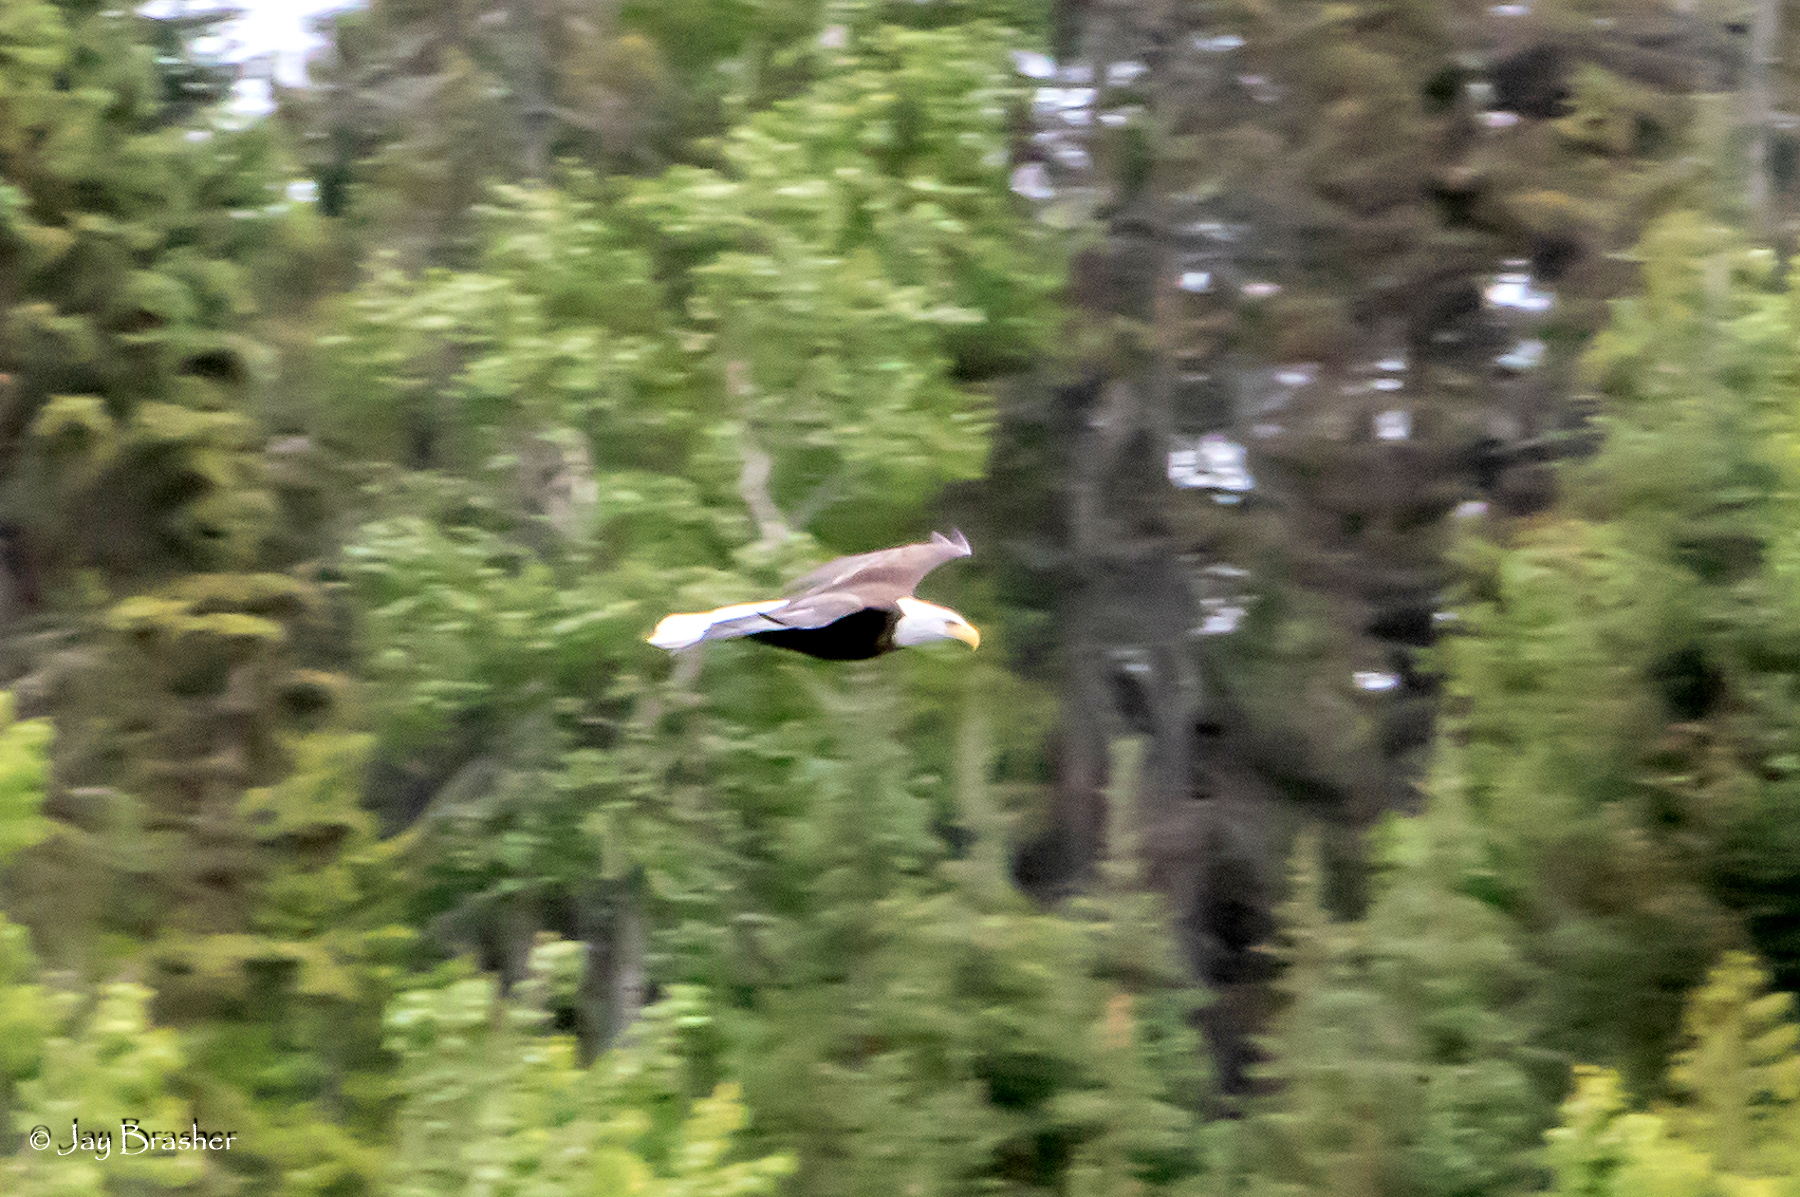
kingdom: Animalia
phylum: Chordata
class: Aves
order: Accipitriformes
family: Accipitridae
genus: Haliaeetus
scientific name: Haliaeetus leucocephalus
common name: Bald eagle
